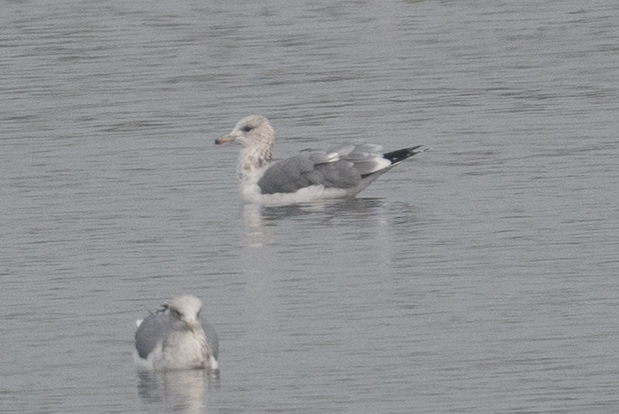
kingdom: Animalia
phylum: Chordata
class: Aves
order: Charadriiformes
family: Laridae
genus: Larus
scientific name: Larus californicus
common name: California gull
